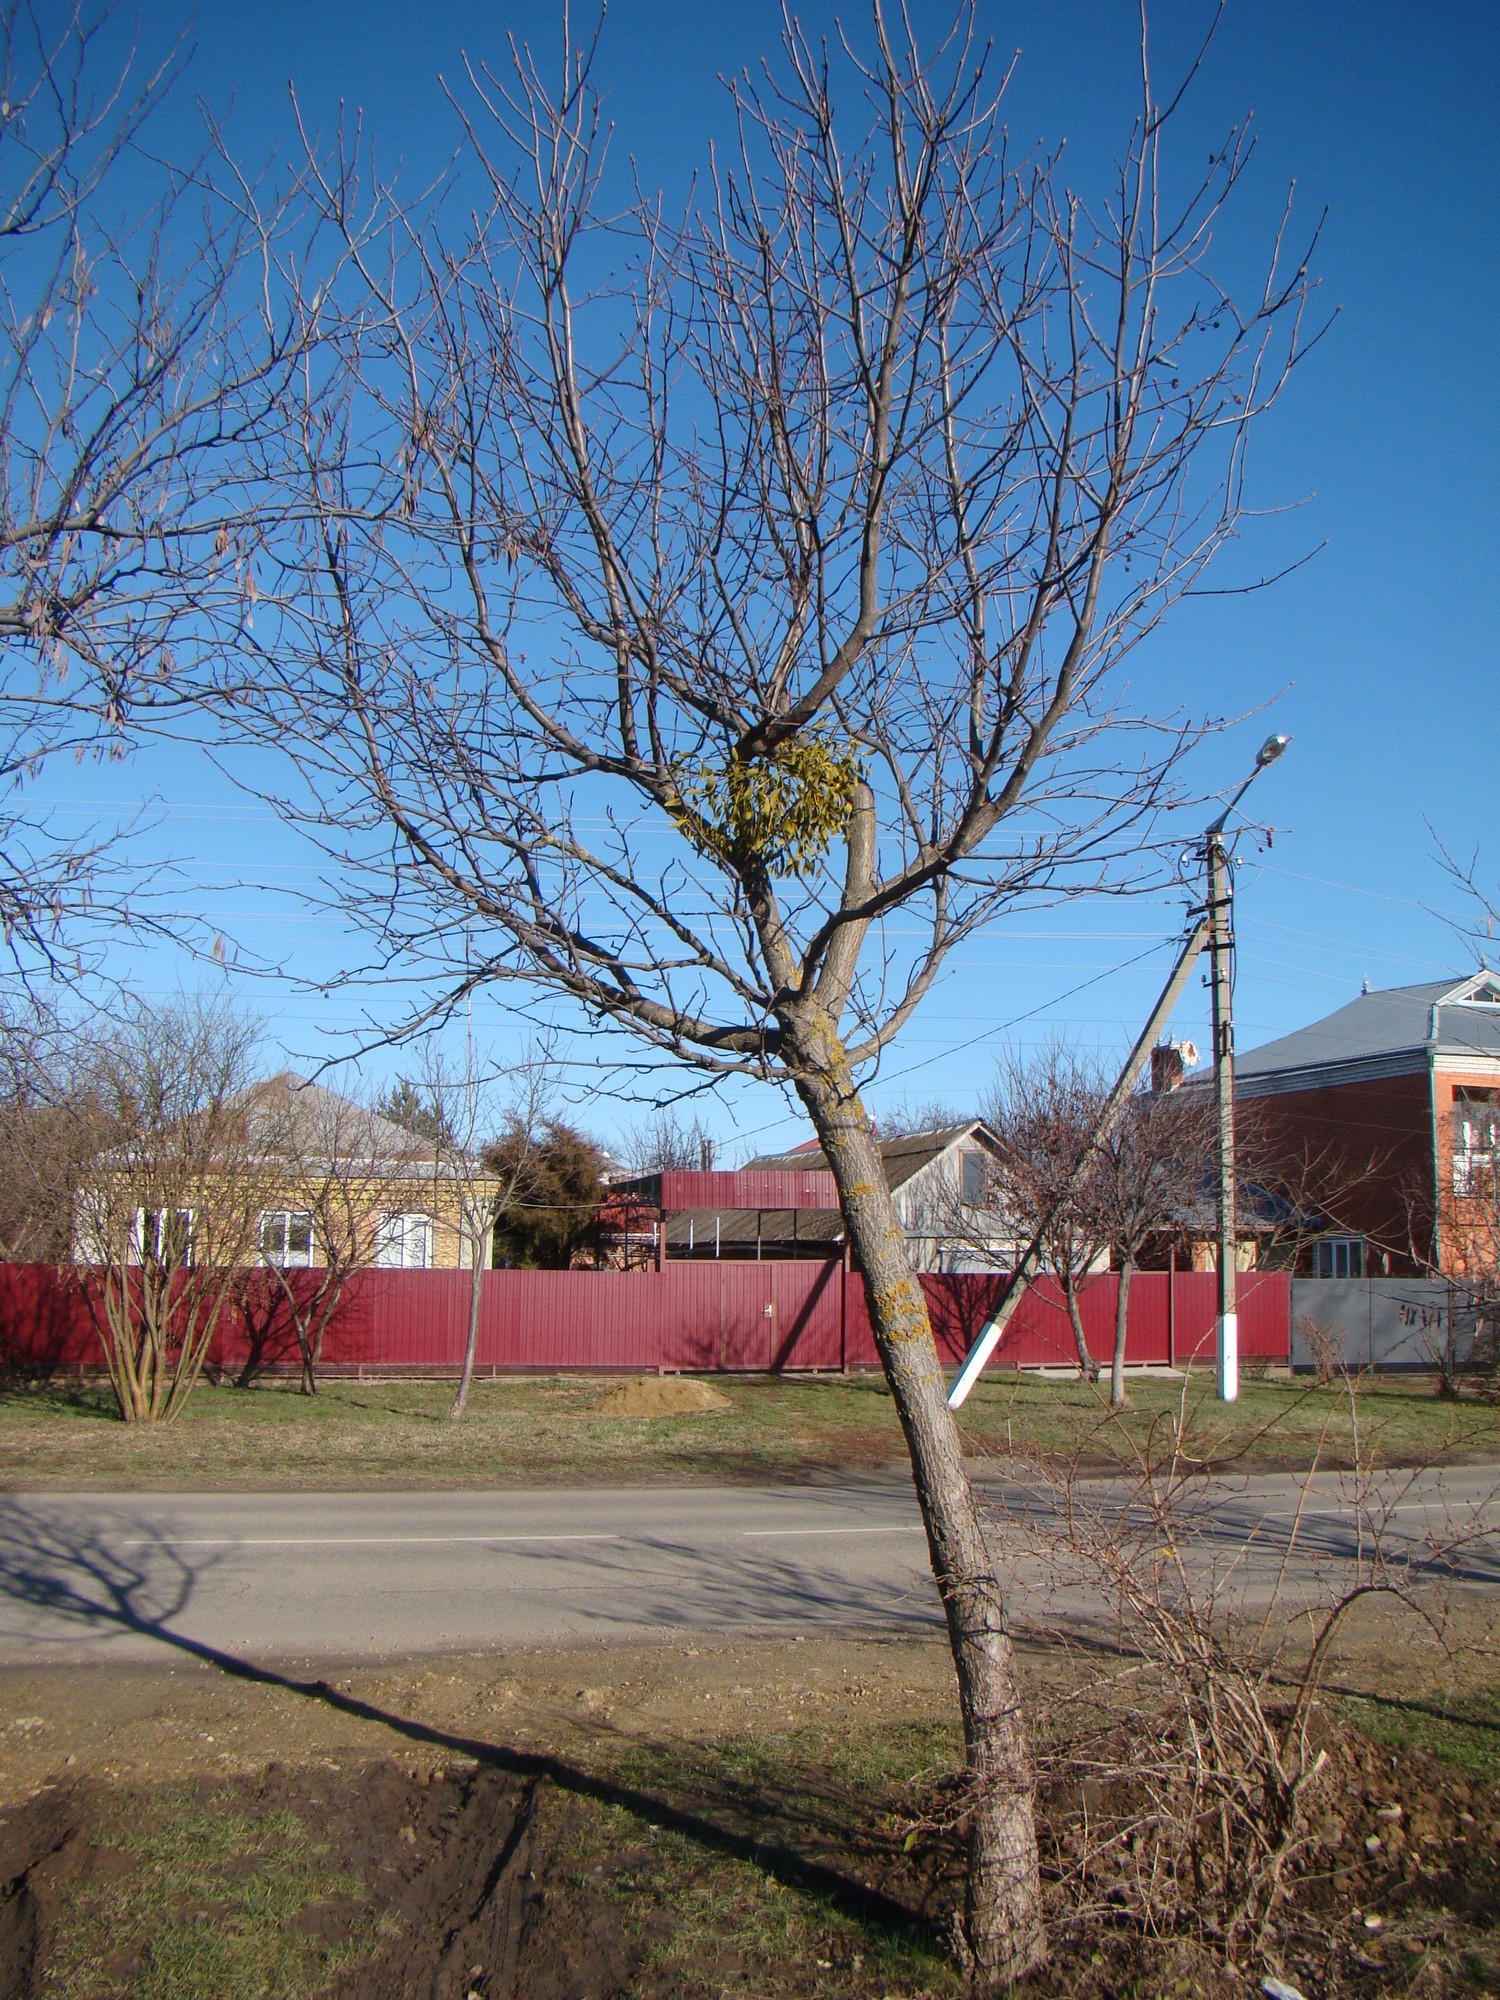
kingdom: Plantae
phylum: Tracheophyta
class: Magnoliopsida
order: Santalales
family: Viscaceae
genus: Viscum
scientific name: Viscum album
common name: Mistletoe
